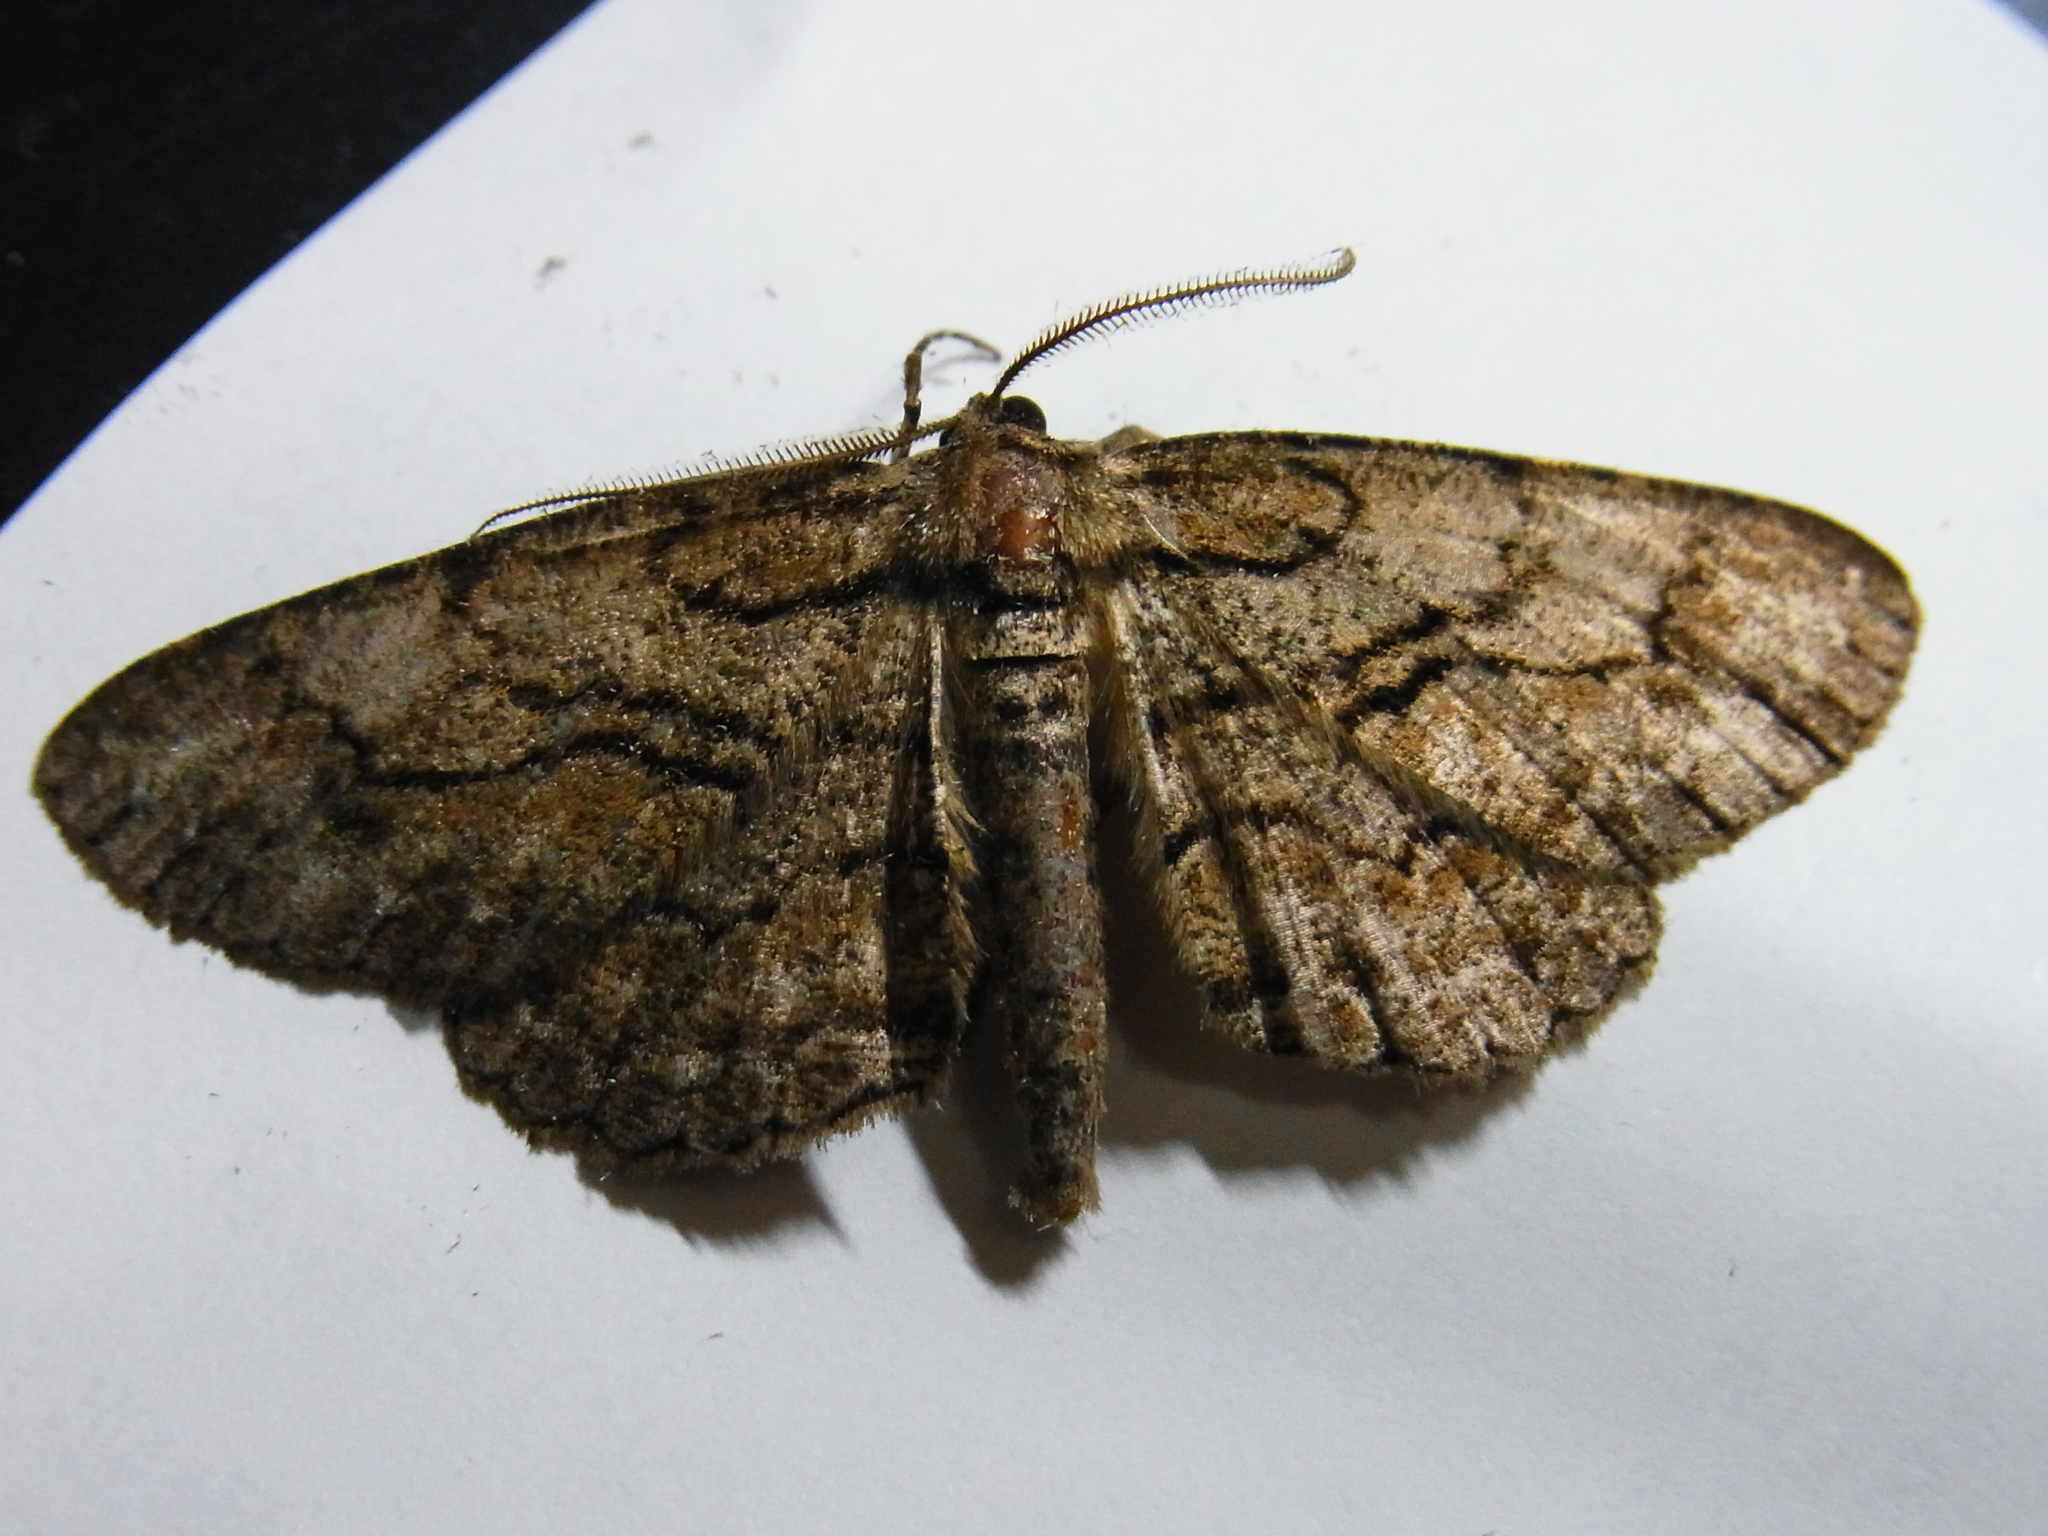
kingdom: Animalia
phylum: Arthropoda
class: Insecta
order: Lepidoptera
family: Geometridae
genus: Heterarmia
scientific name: Heterarmia charon
